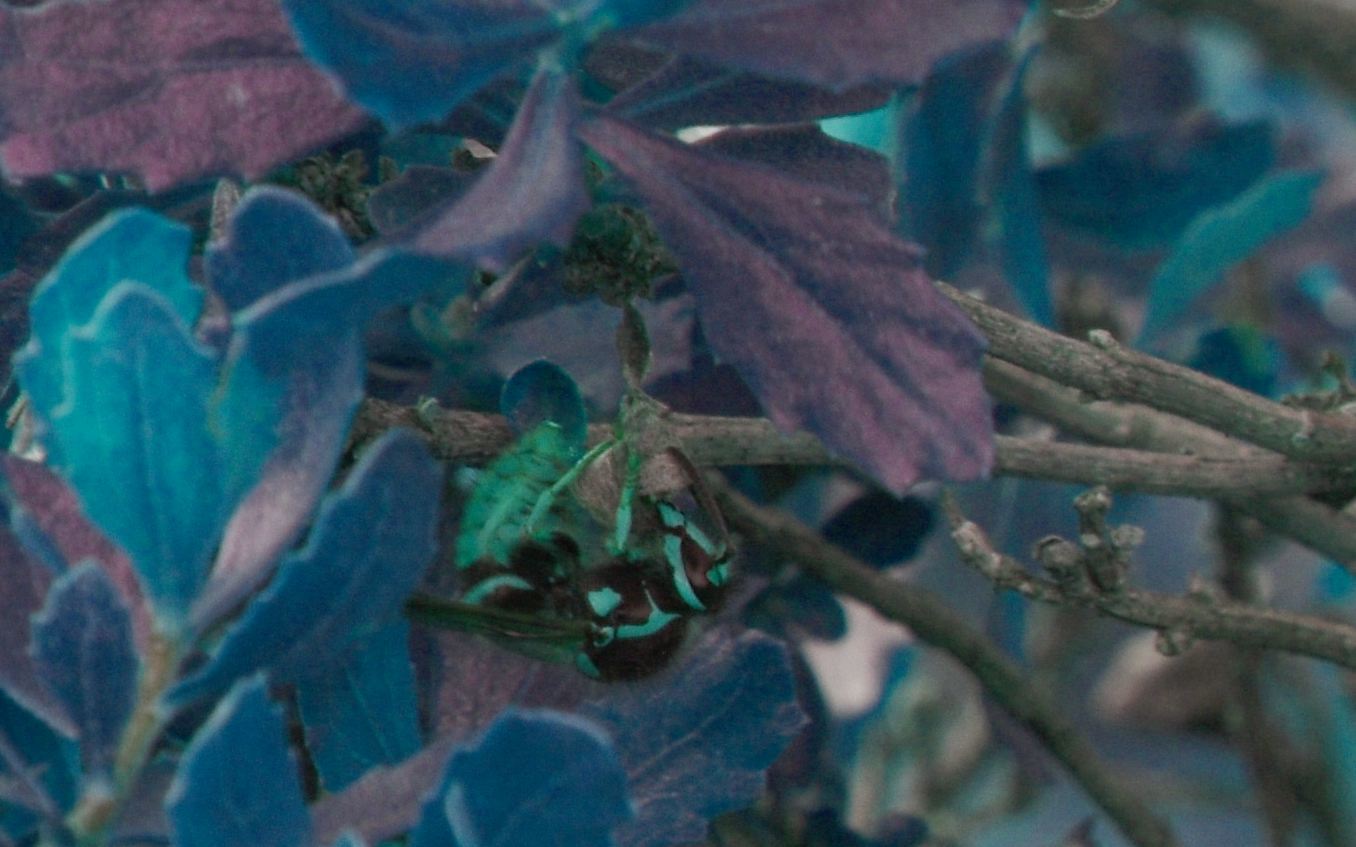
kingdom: Animalia
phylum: Arthropoda
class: Insecta
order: Hymenoptera
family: Vespidae
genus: Dolichovespula
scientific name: Dolichovespula arenaria
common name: Aerial yellowjacket
